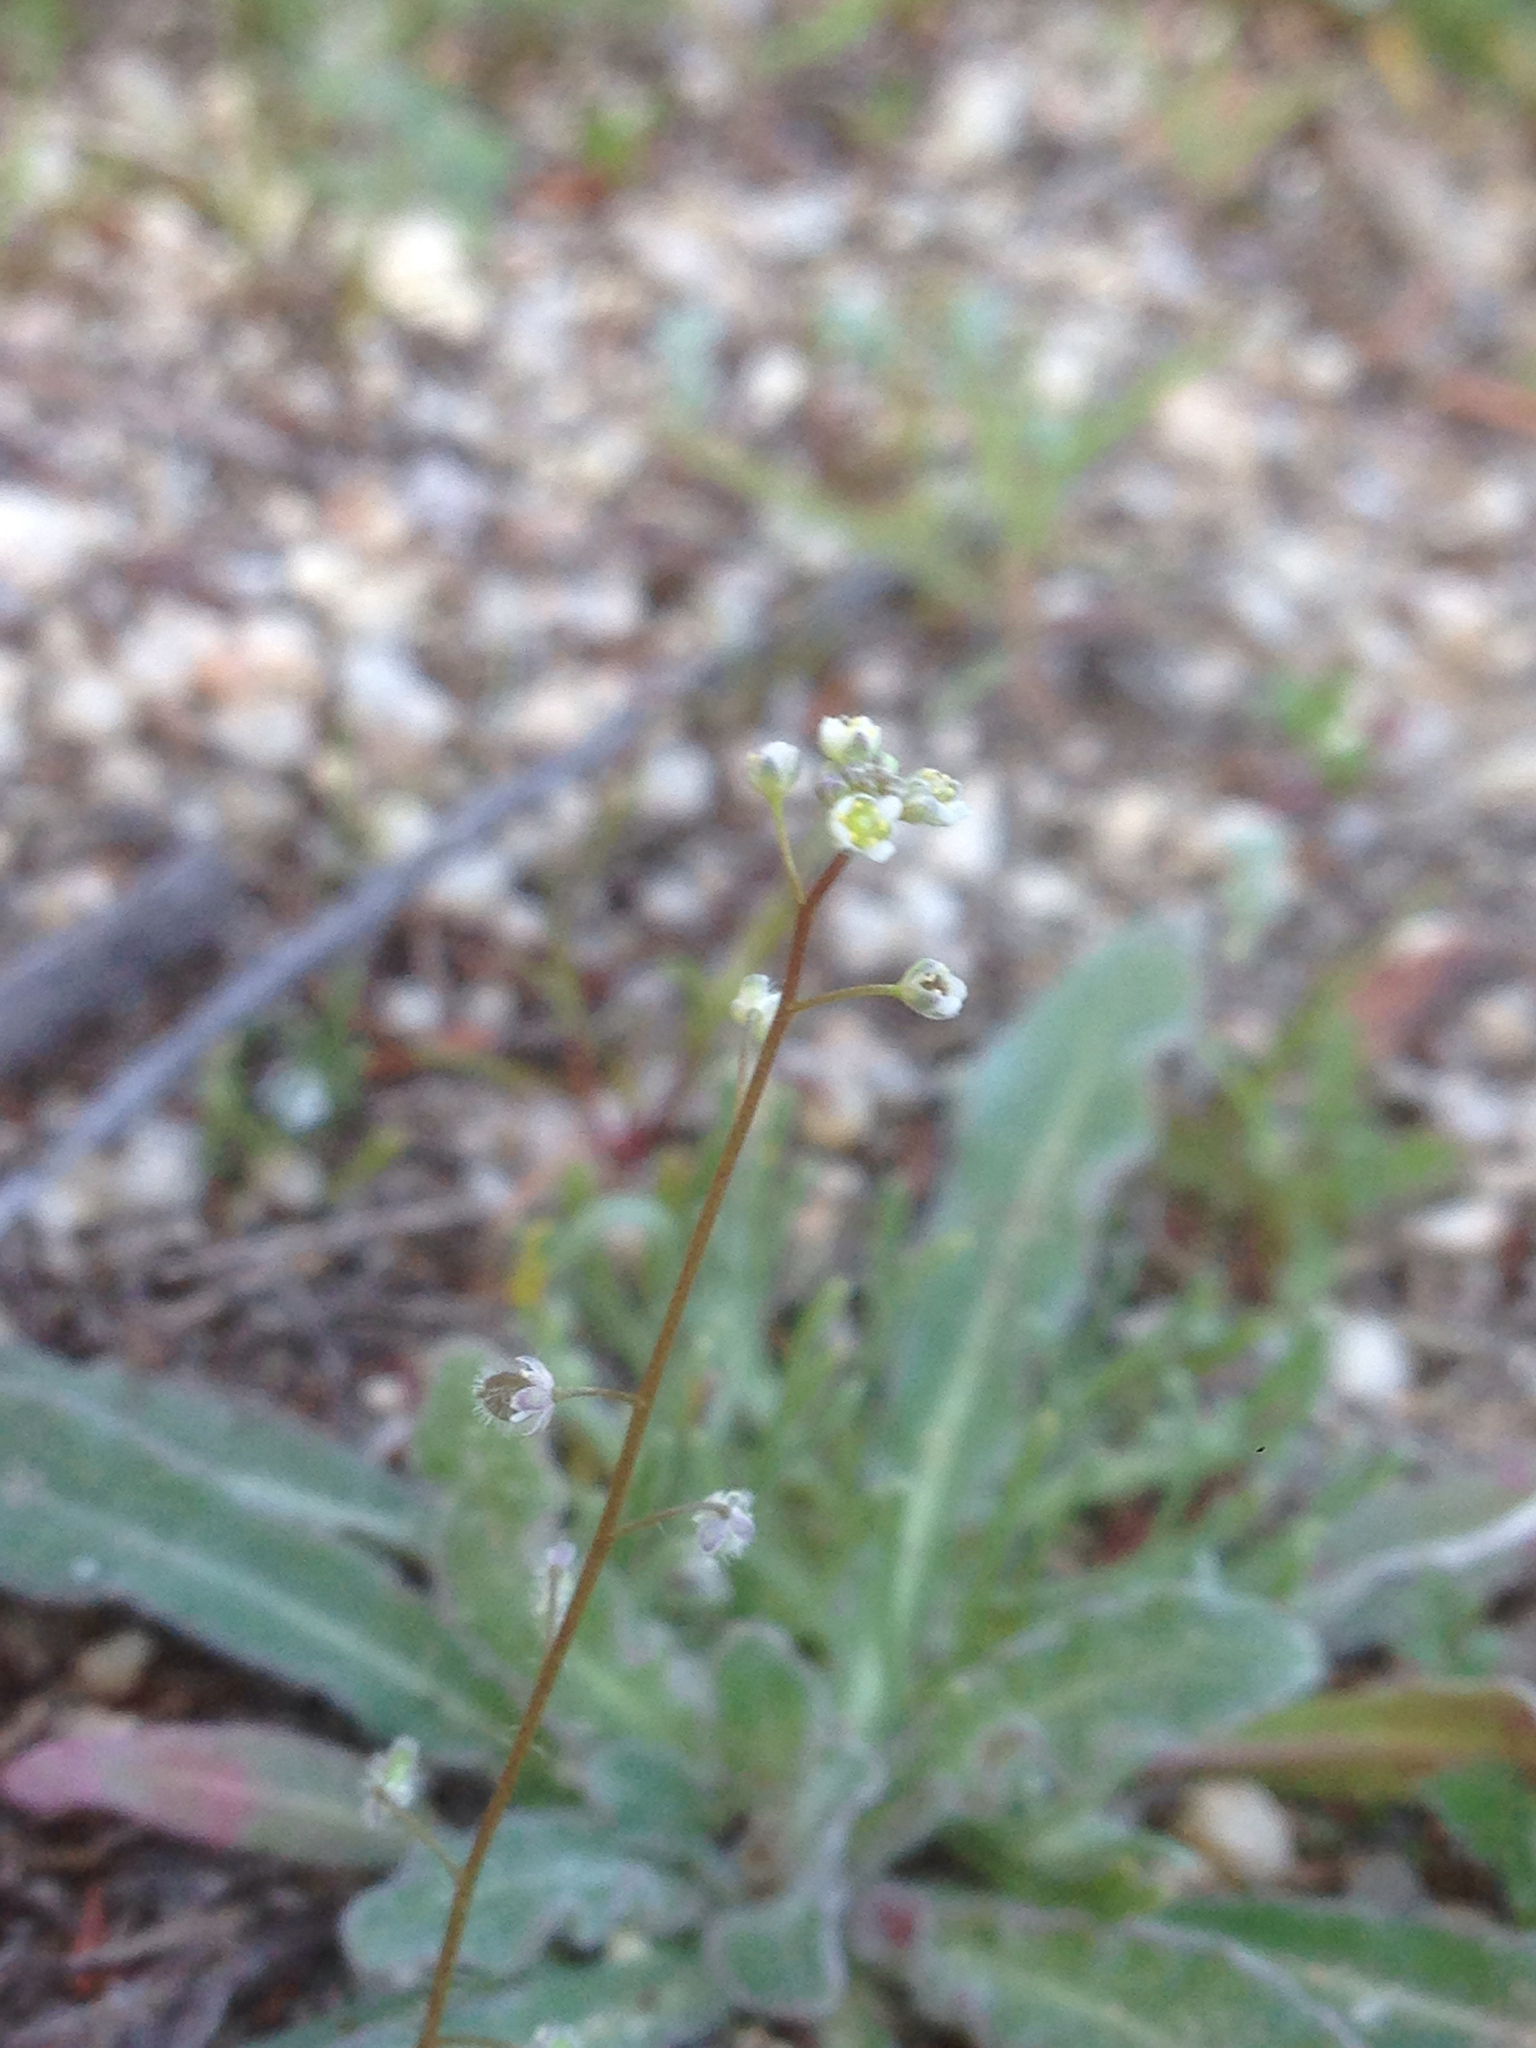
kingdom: Plantae
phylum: Tracheophyta
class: Magnoliopsida
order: Brassicales
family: Brassicaceae
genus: Athysanus
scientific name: Athysanus pusillus
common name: Common sandweed
